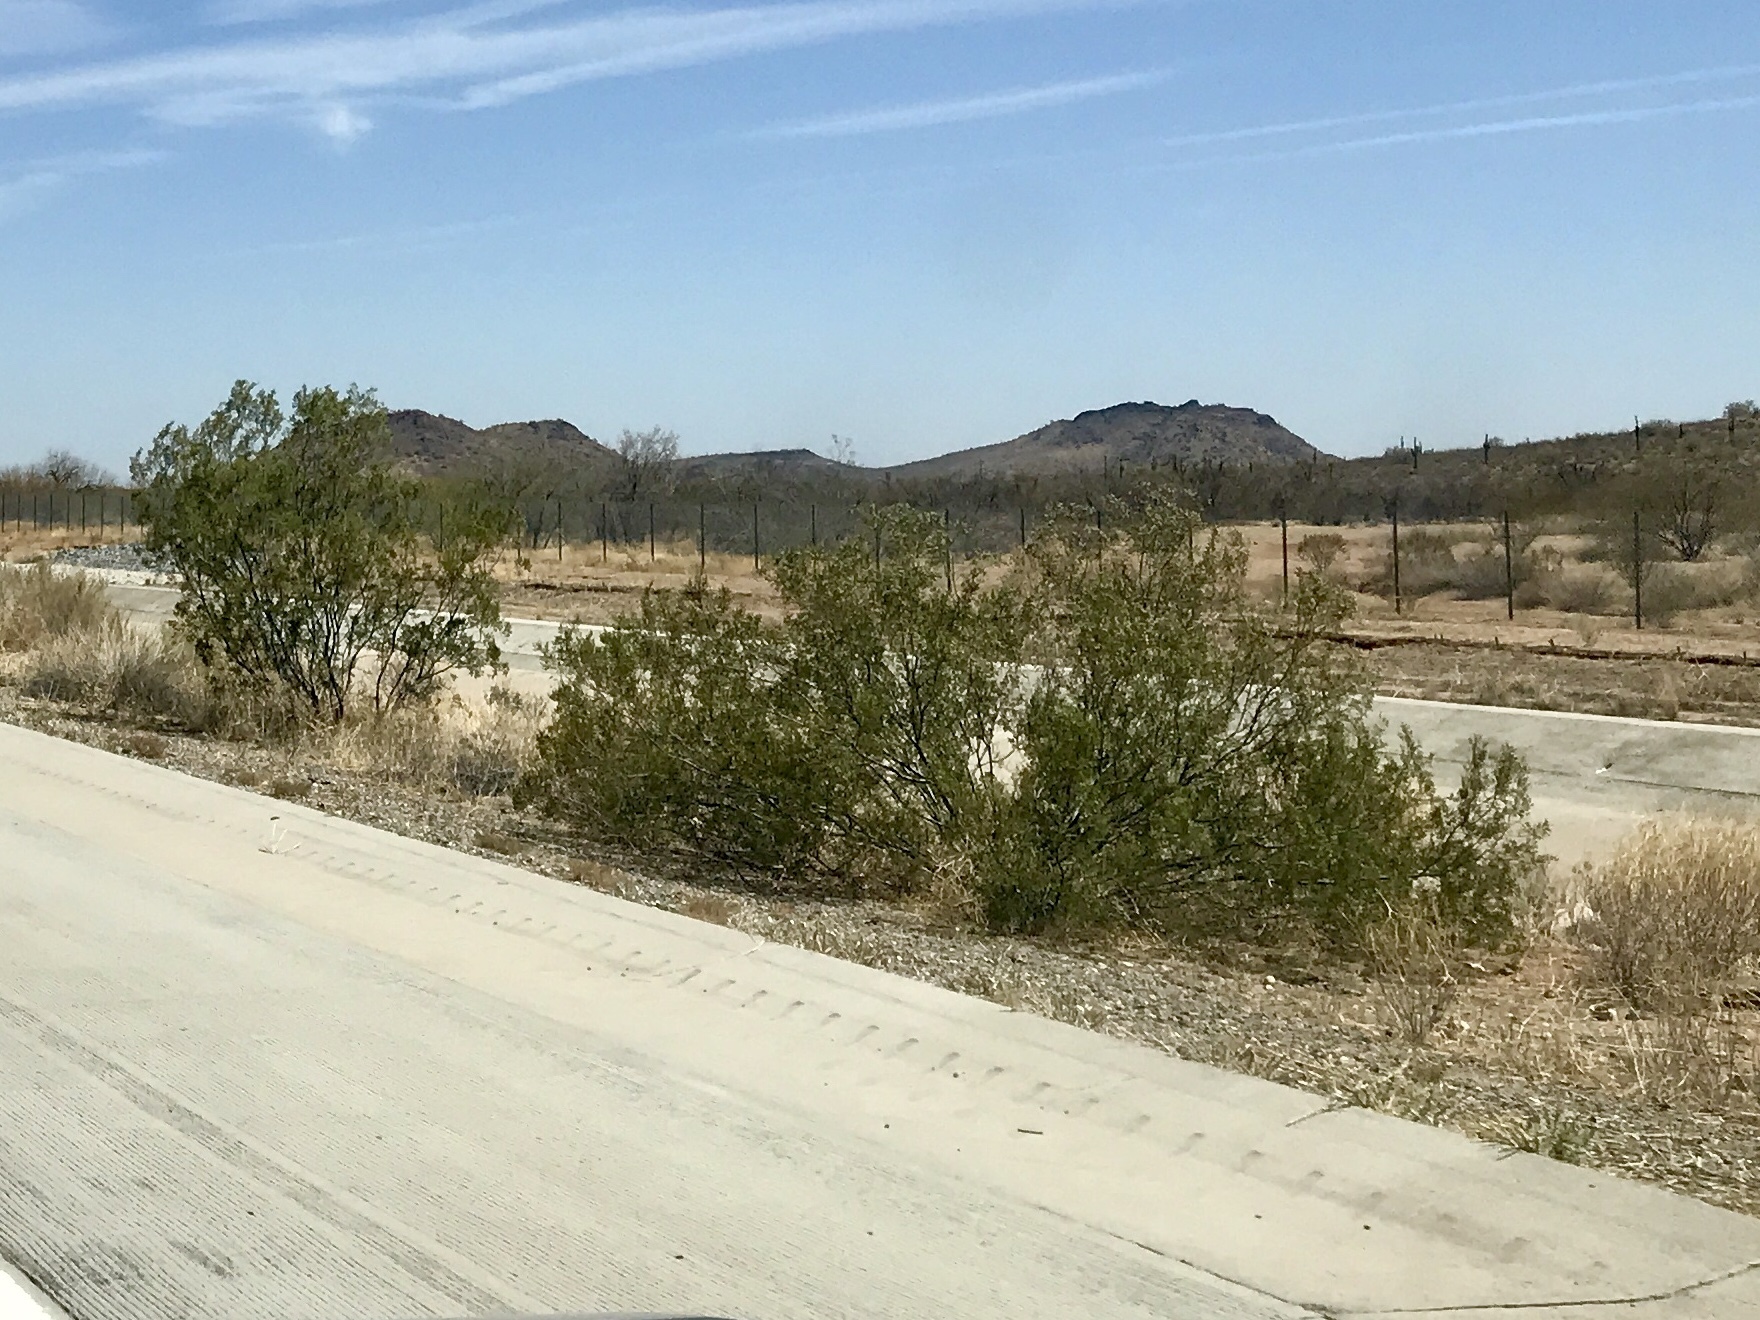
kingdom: Plantae
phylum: Tracheophyta
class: Magnoliopsida
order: Zygophyllales
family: Zygophyllaceae
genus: Larrea
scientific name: Larrea tridentata
